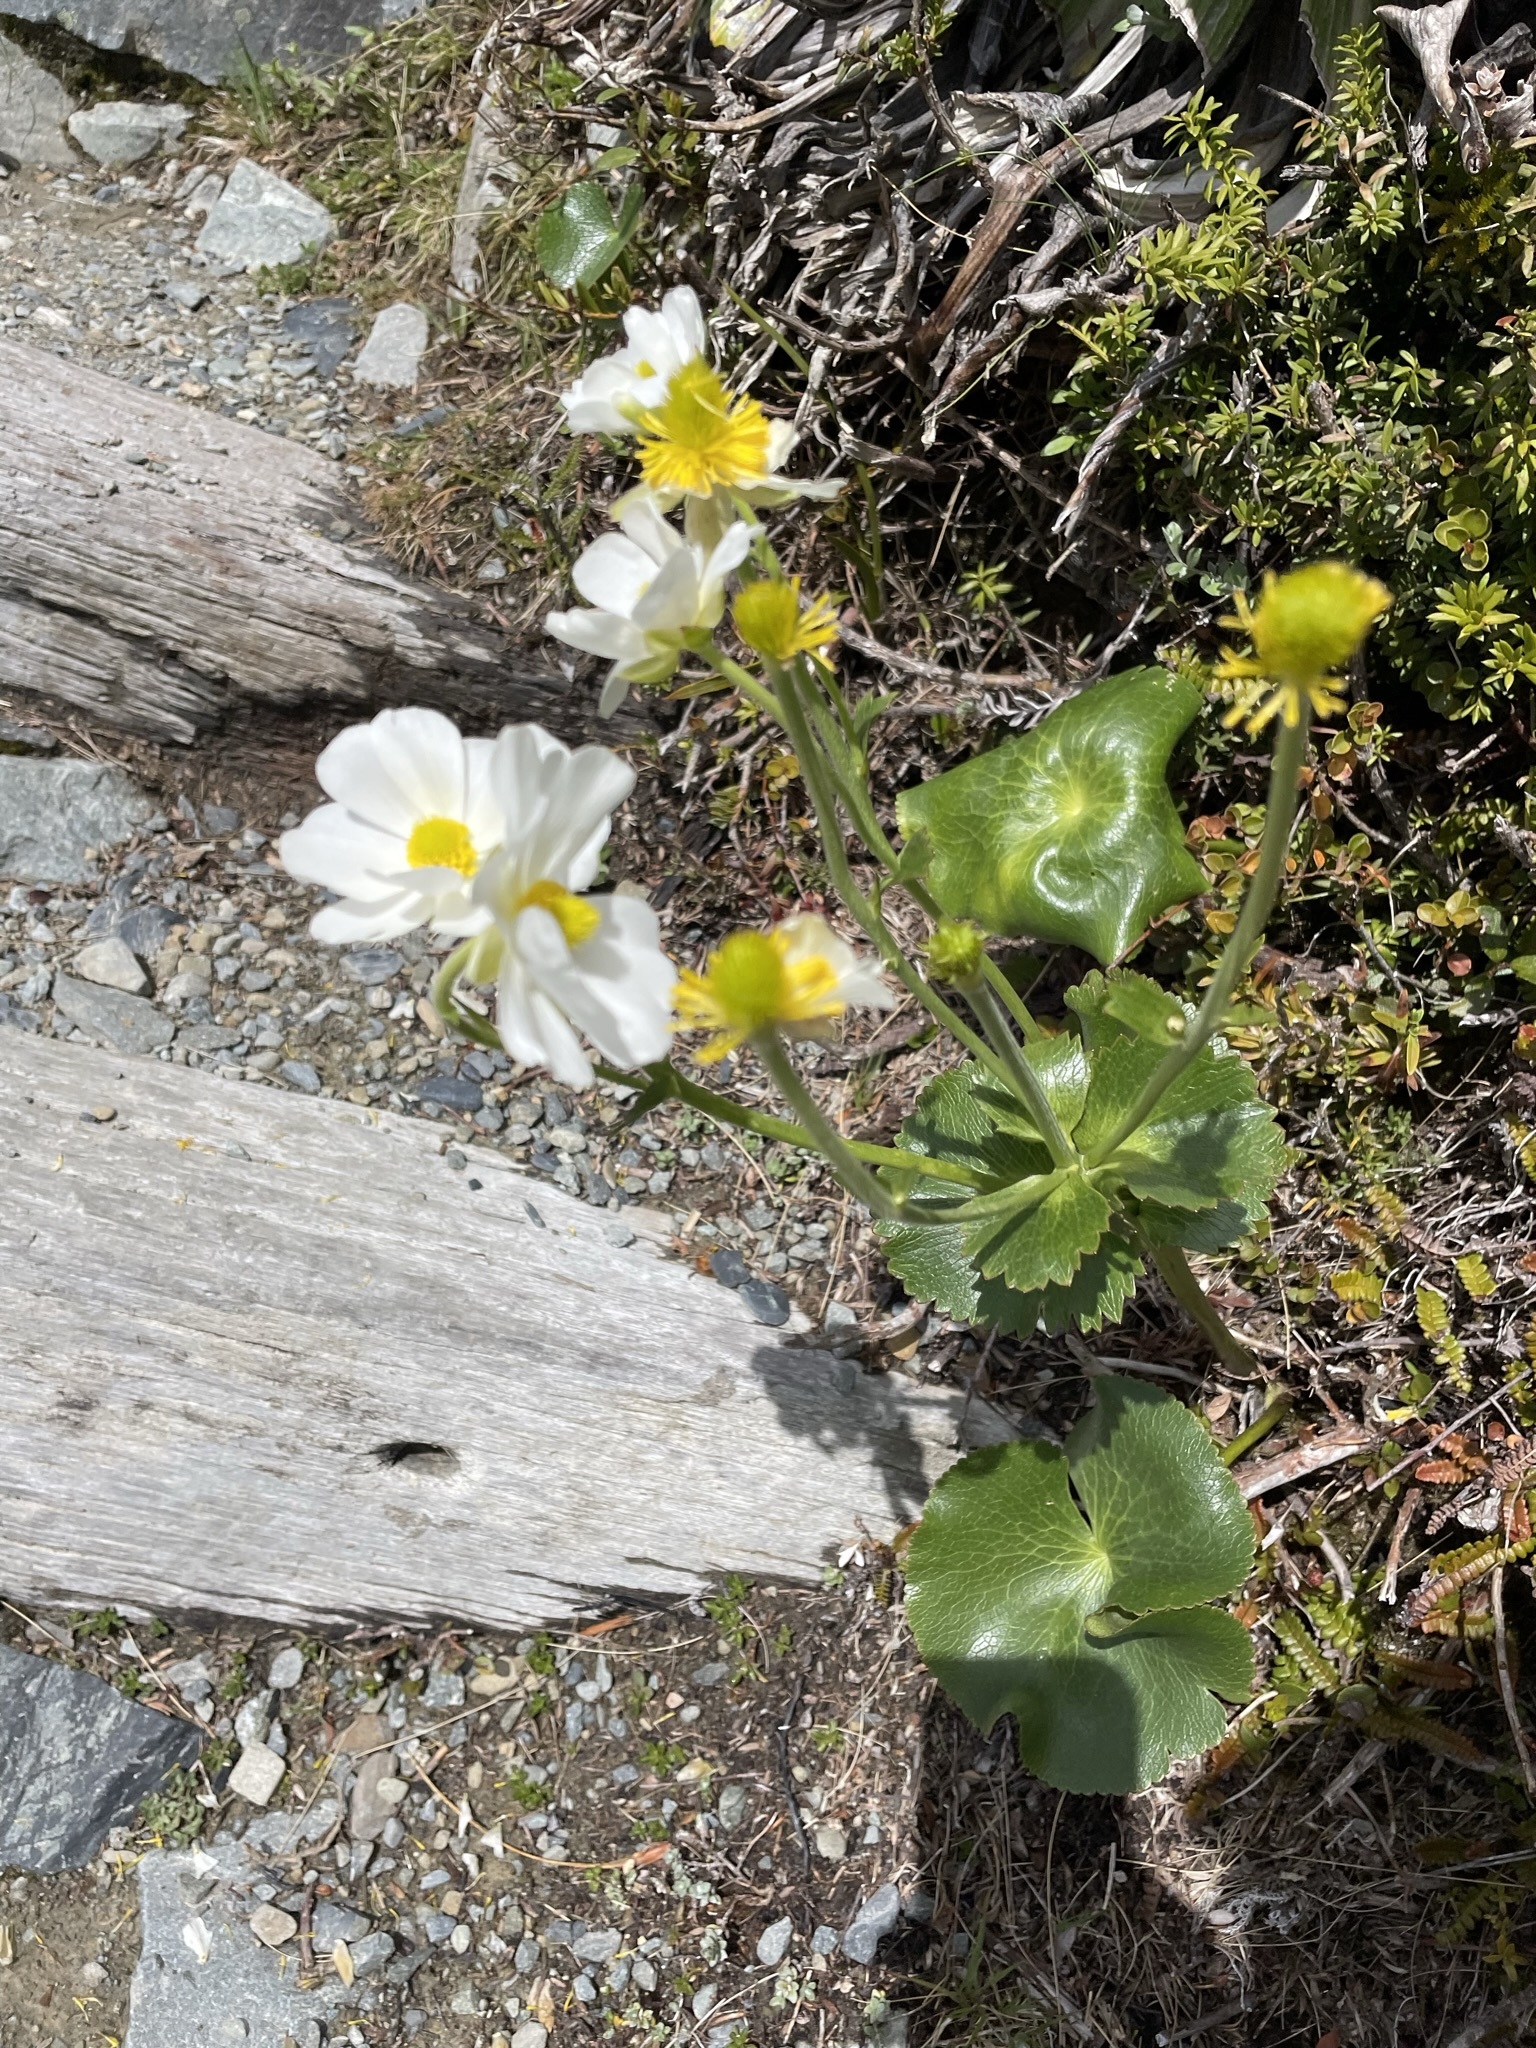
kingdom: Plantae
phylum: Tracheophyta
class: Magnoliopsida
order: Ranunculales
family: Ranunculaceae
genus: Ranunculus
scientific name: Ranunculus lyallii
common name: Mountain-lily
